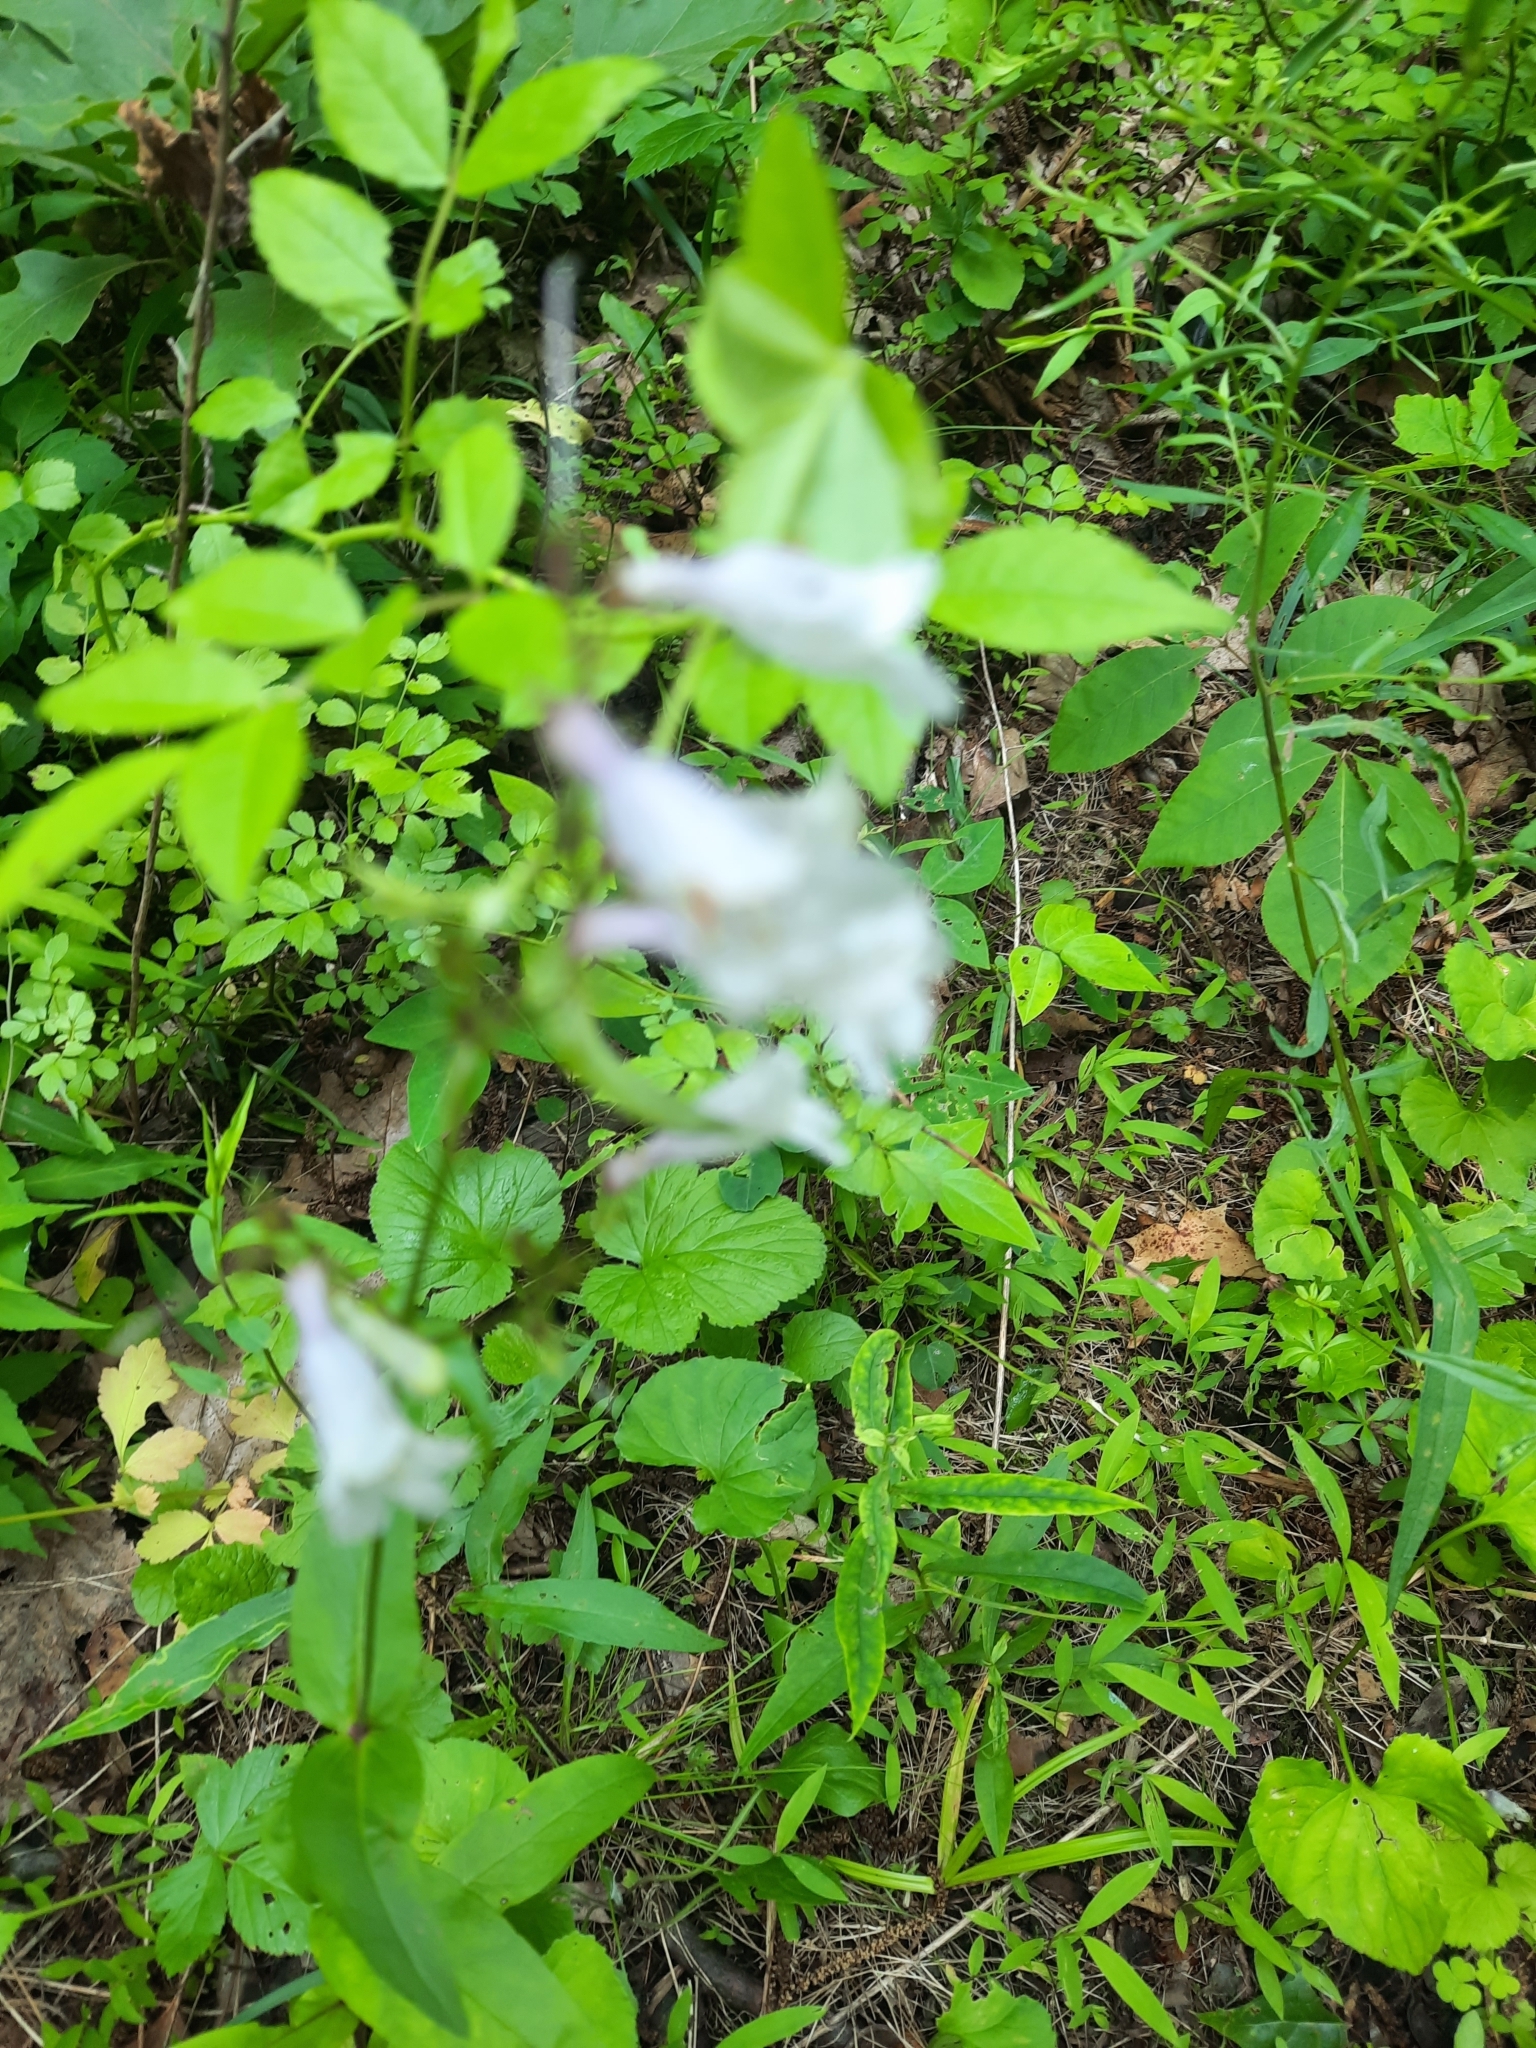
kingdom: Plantae
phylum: Tracheophyta
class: Magnoliopsida
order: Lamiales
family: Plantaginaceae
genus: Penstemon
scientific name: Penstemon digitalis
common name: Foxglove beardtongue
